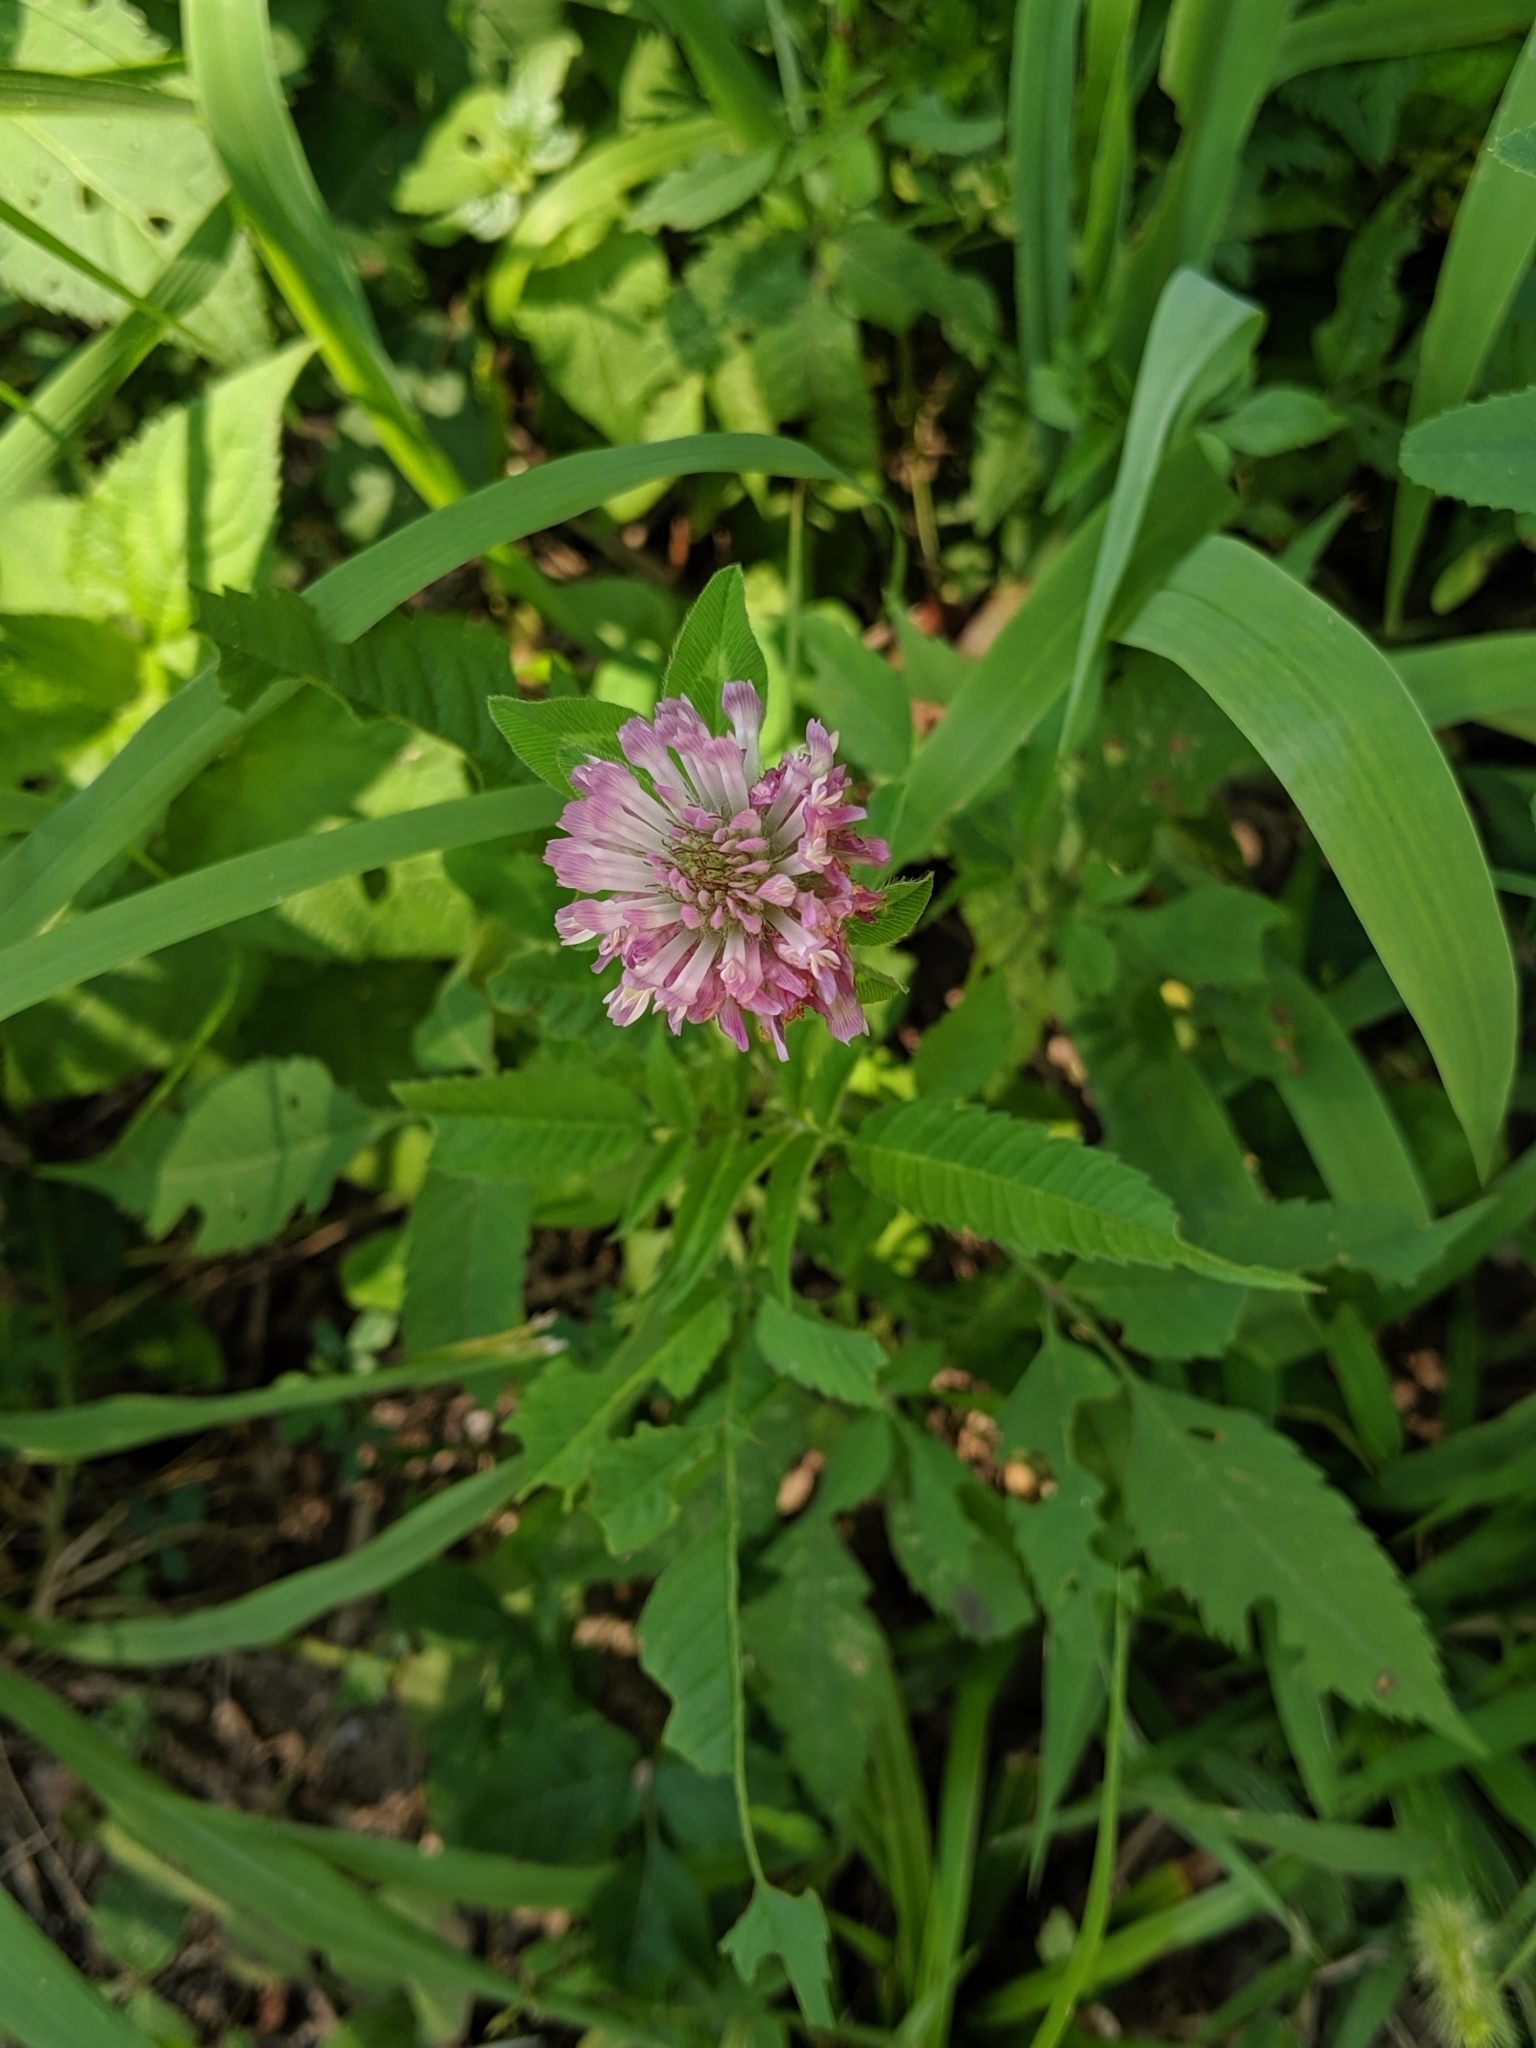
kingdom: Plantae
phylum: Tracheophyta
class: Magnoliopsida
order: Fabales
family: Fabaceae
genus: Trifolium
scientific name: Trifolium pratense
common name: Red clover
